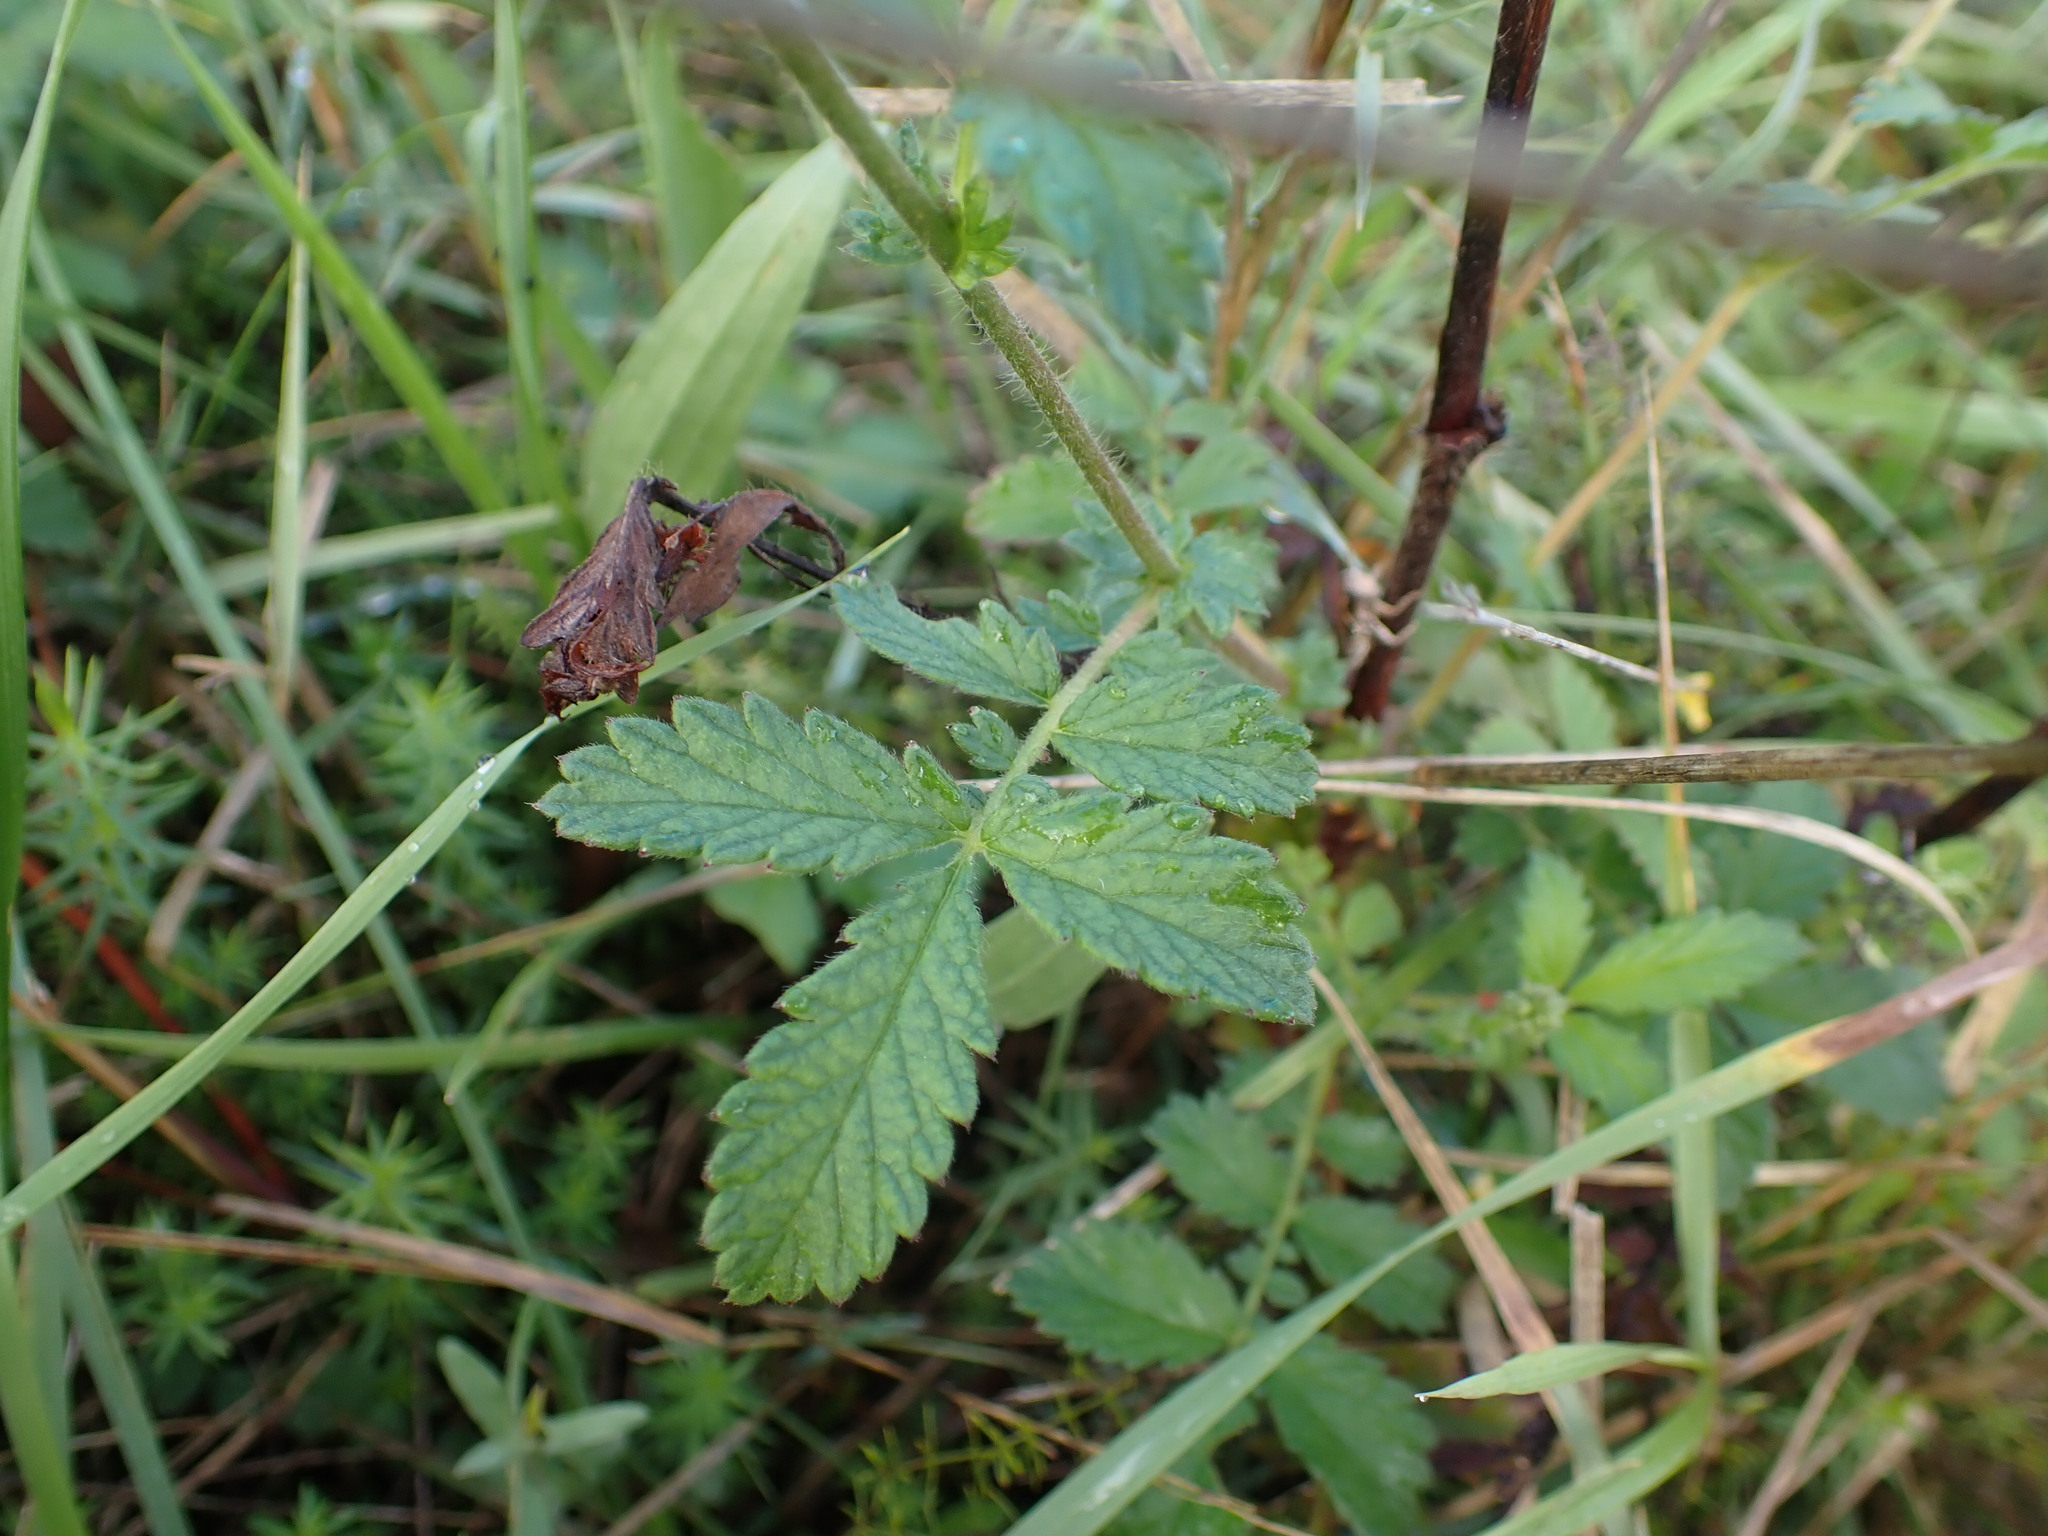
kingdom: Plantae
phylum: Tracheophyta
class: Magnoliopsida
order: Rosales
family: Rosaceae
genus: Agrimonia
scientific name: Agrimonia eupatoria
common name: Agrimony
